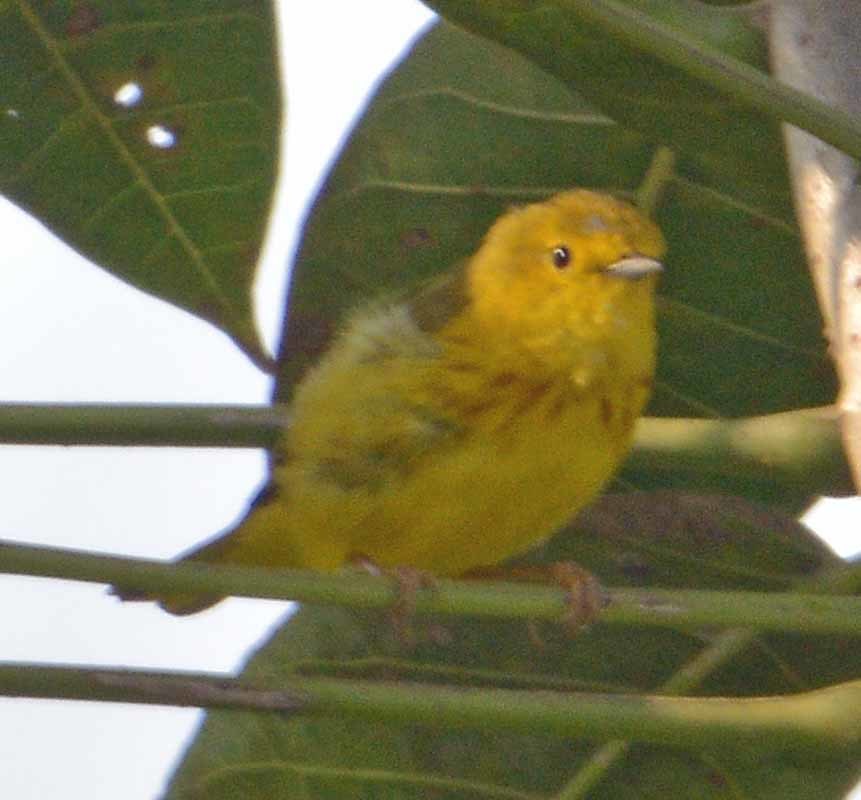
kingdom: Animalia
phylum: Chordata
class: Aves
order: Passeriformes
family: Parulidae
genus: Setophaga
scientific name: Setophaga petechia
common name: Yellow warbler
